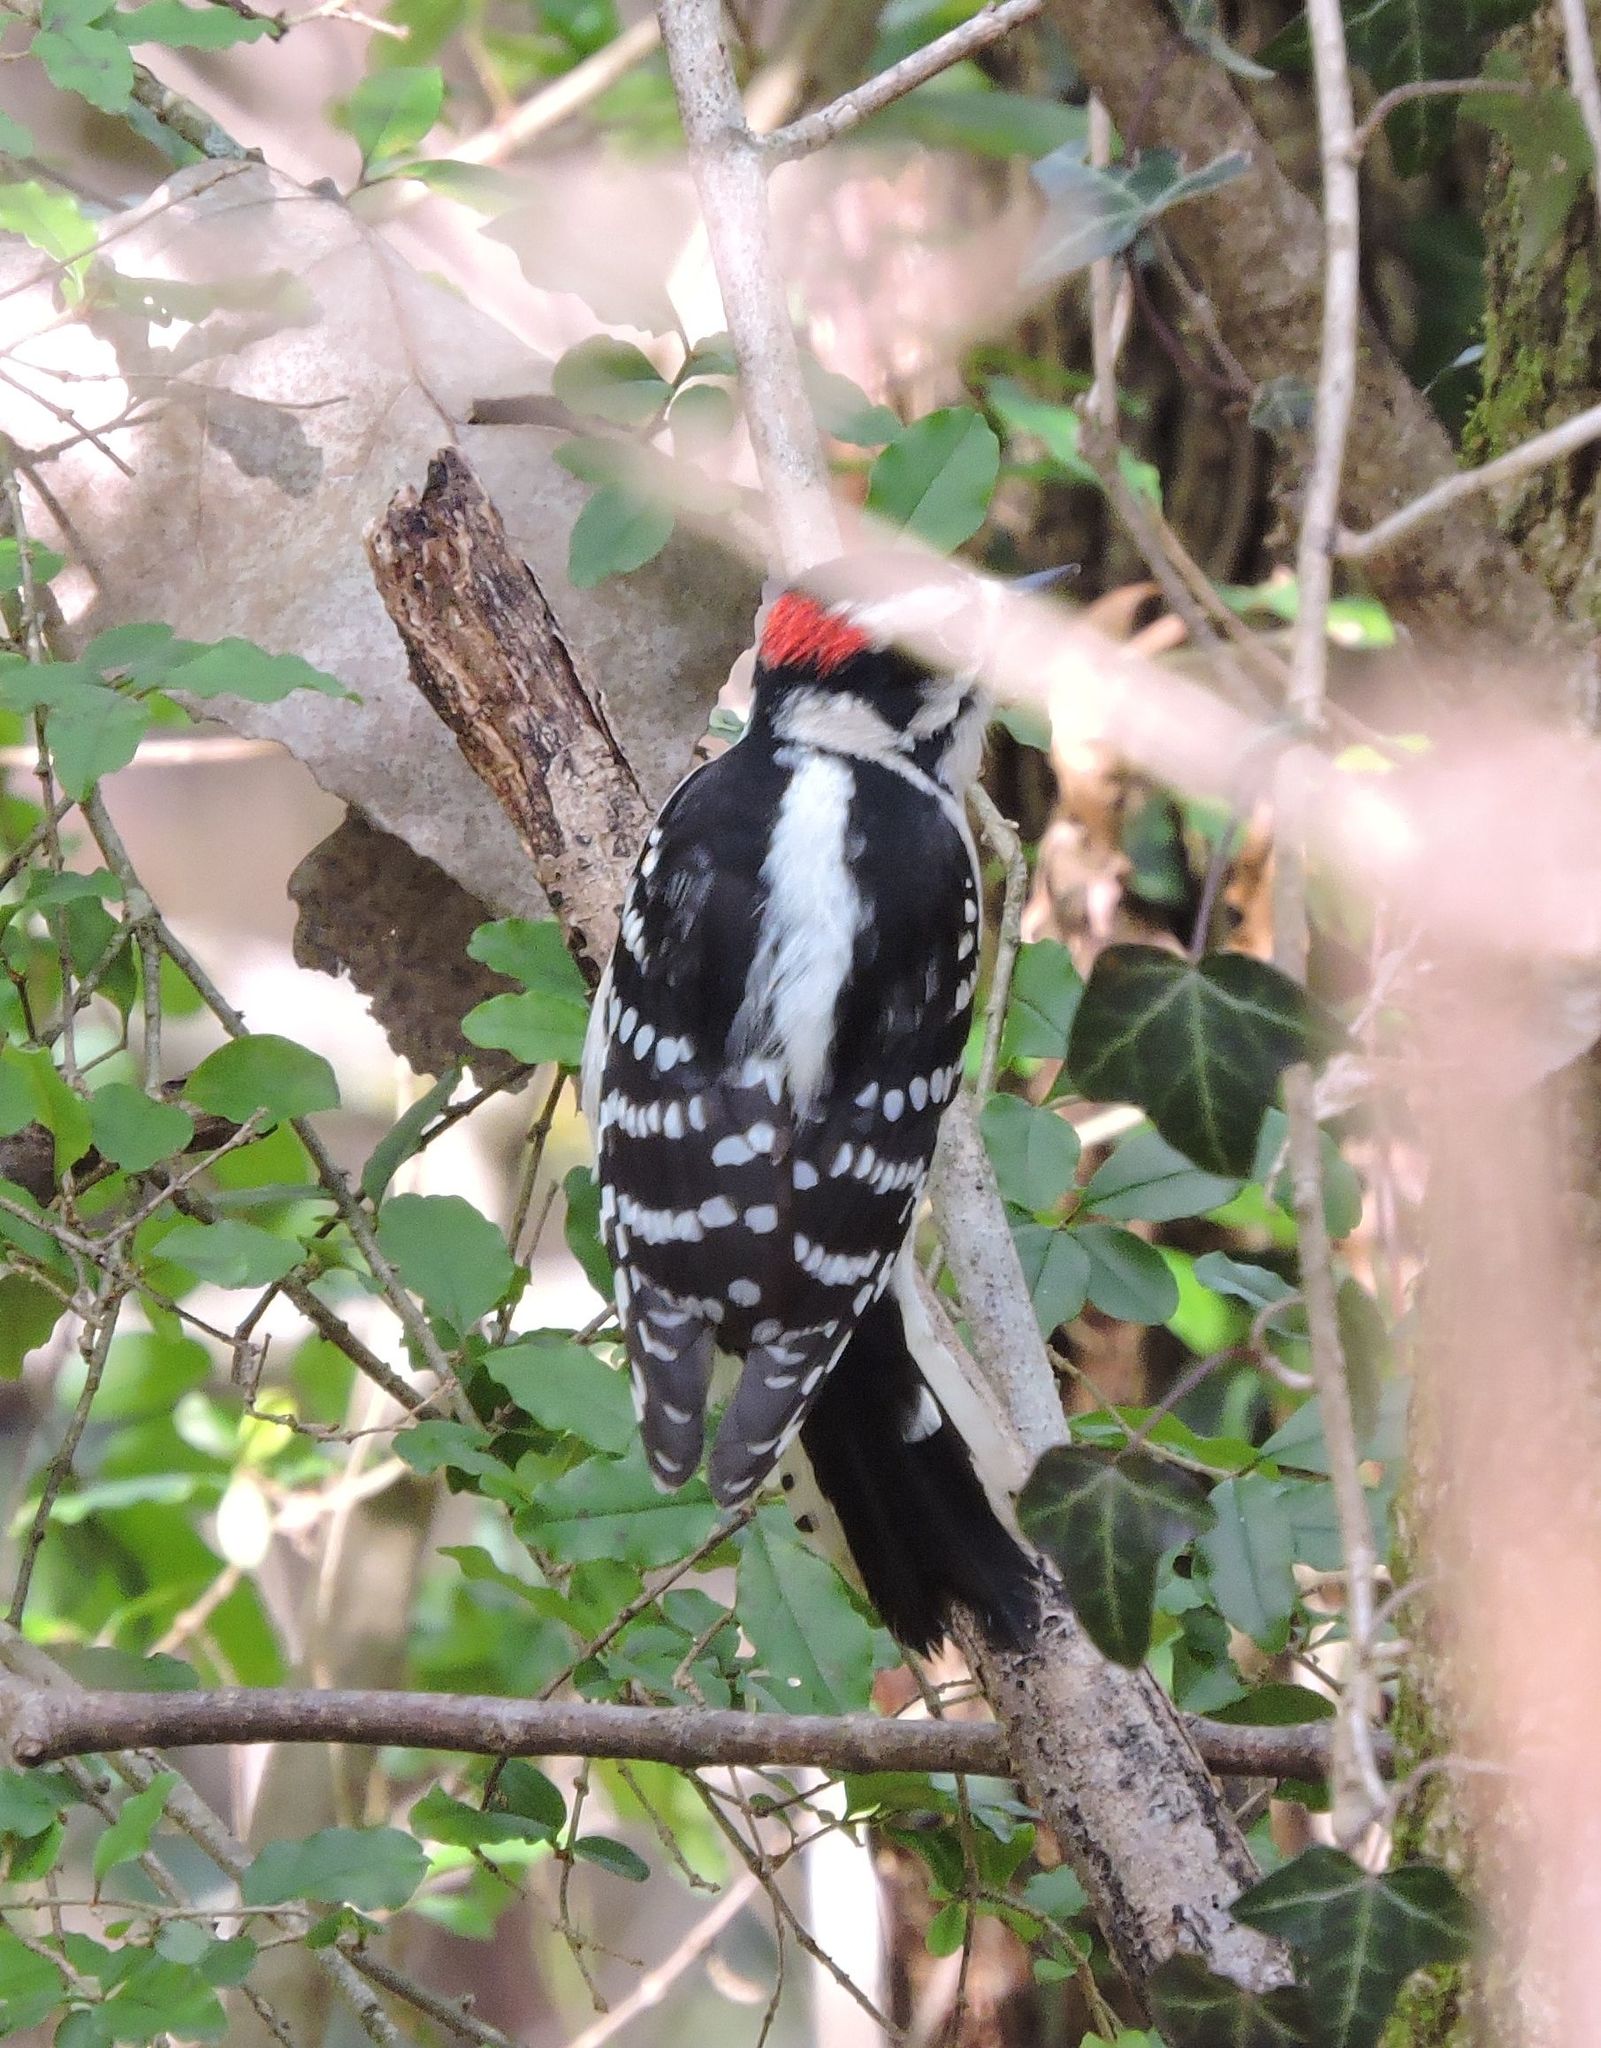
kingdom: Animalia
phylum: Chordata
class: Aves
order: Piciformes
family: Picidae
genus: Dryobates
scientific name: Dryobates pubescens
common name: Downy woodpecker
